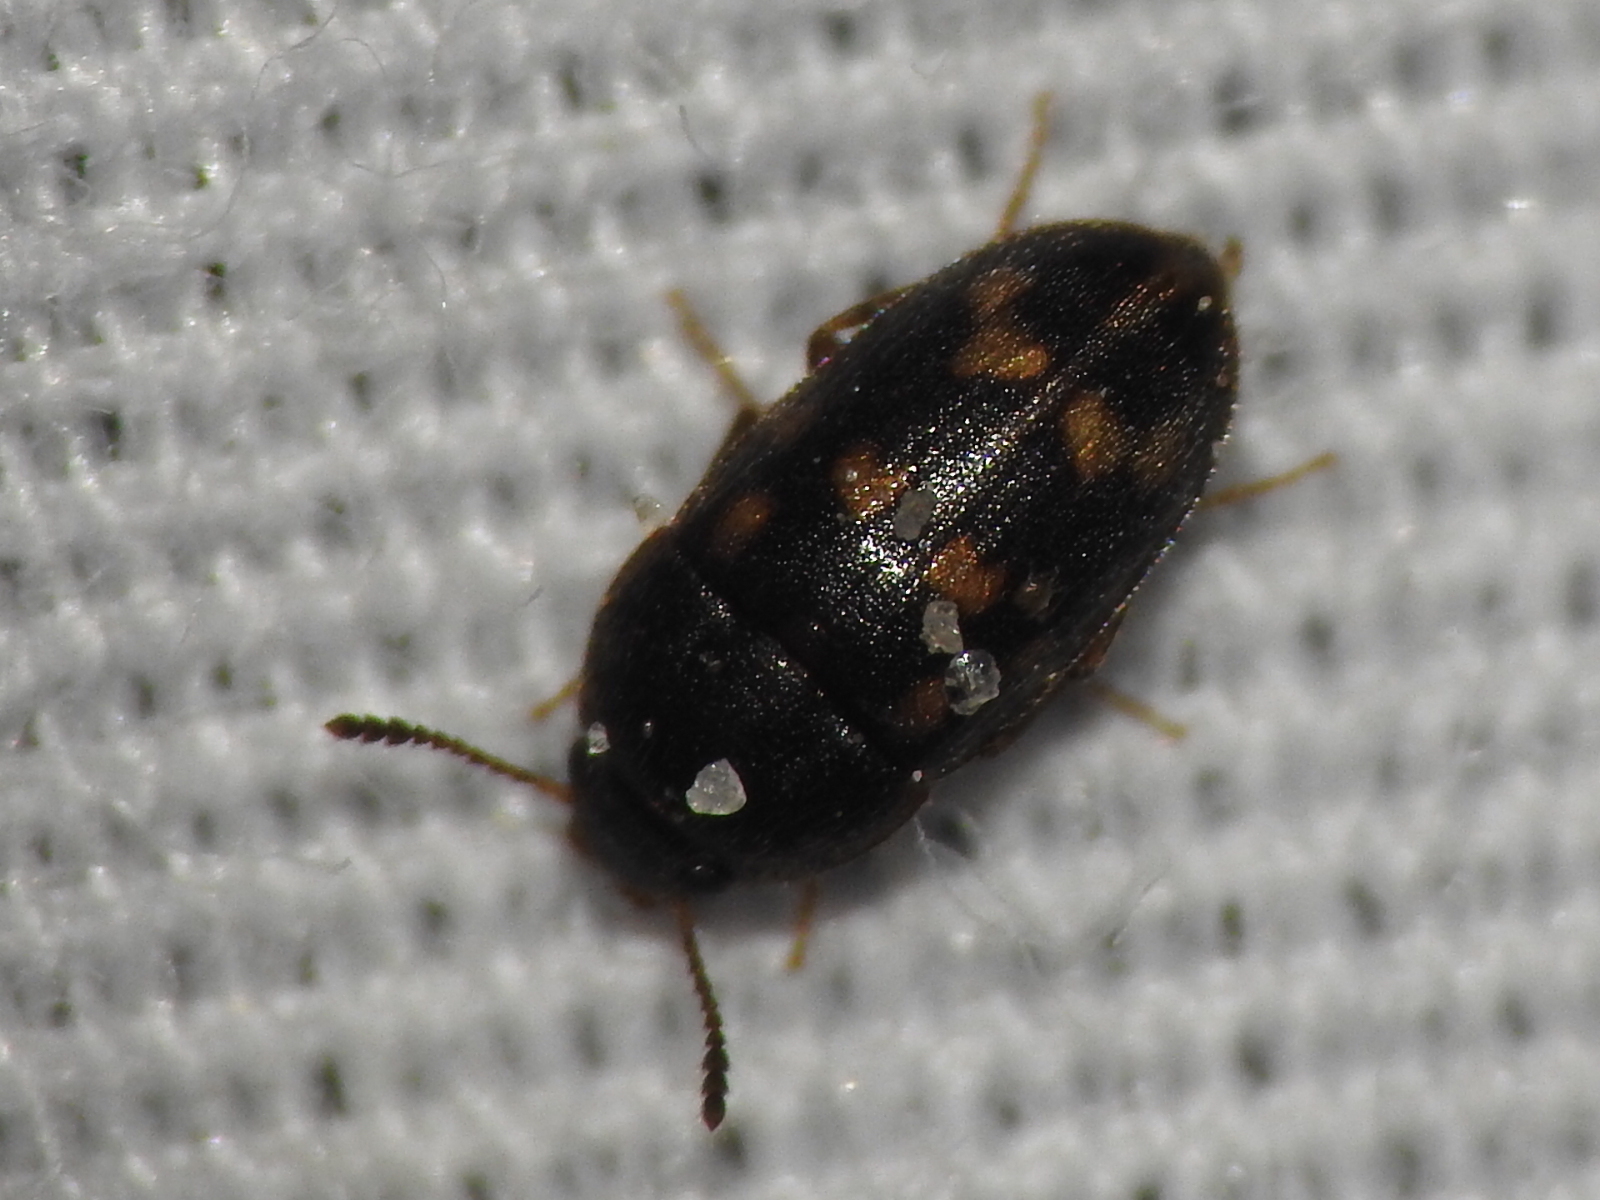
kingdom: Animalia
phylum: Arthropoda
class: Insecta
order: Coleoptera
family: Mycetophagidae
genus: Litargus
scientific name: Litargus sexpunctatus
